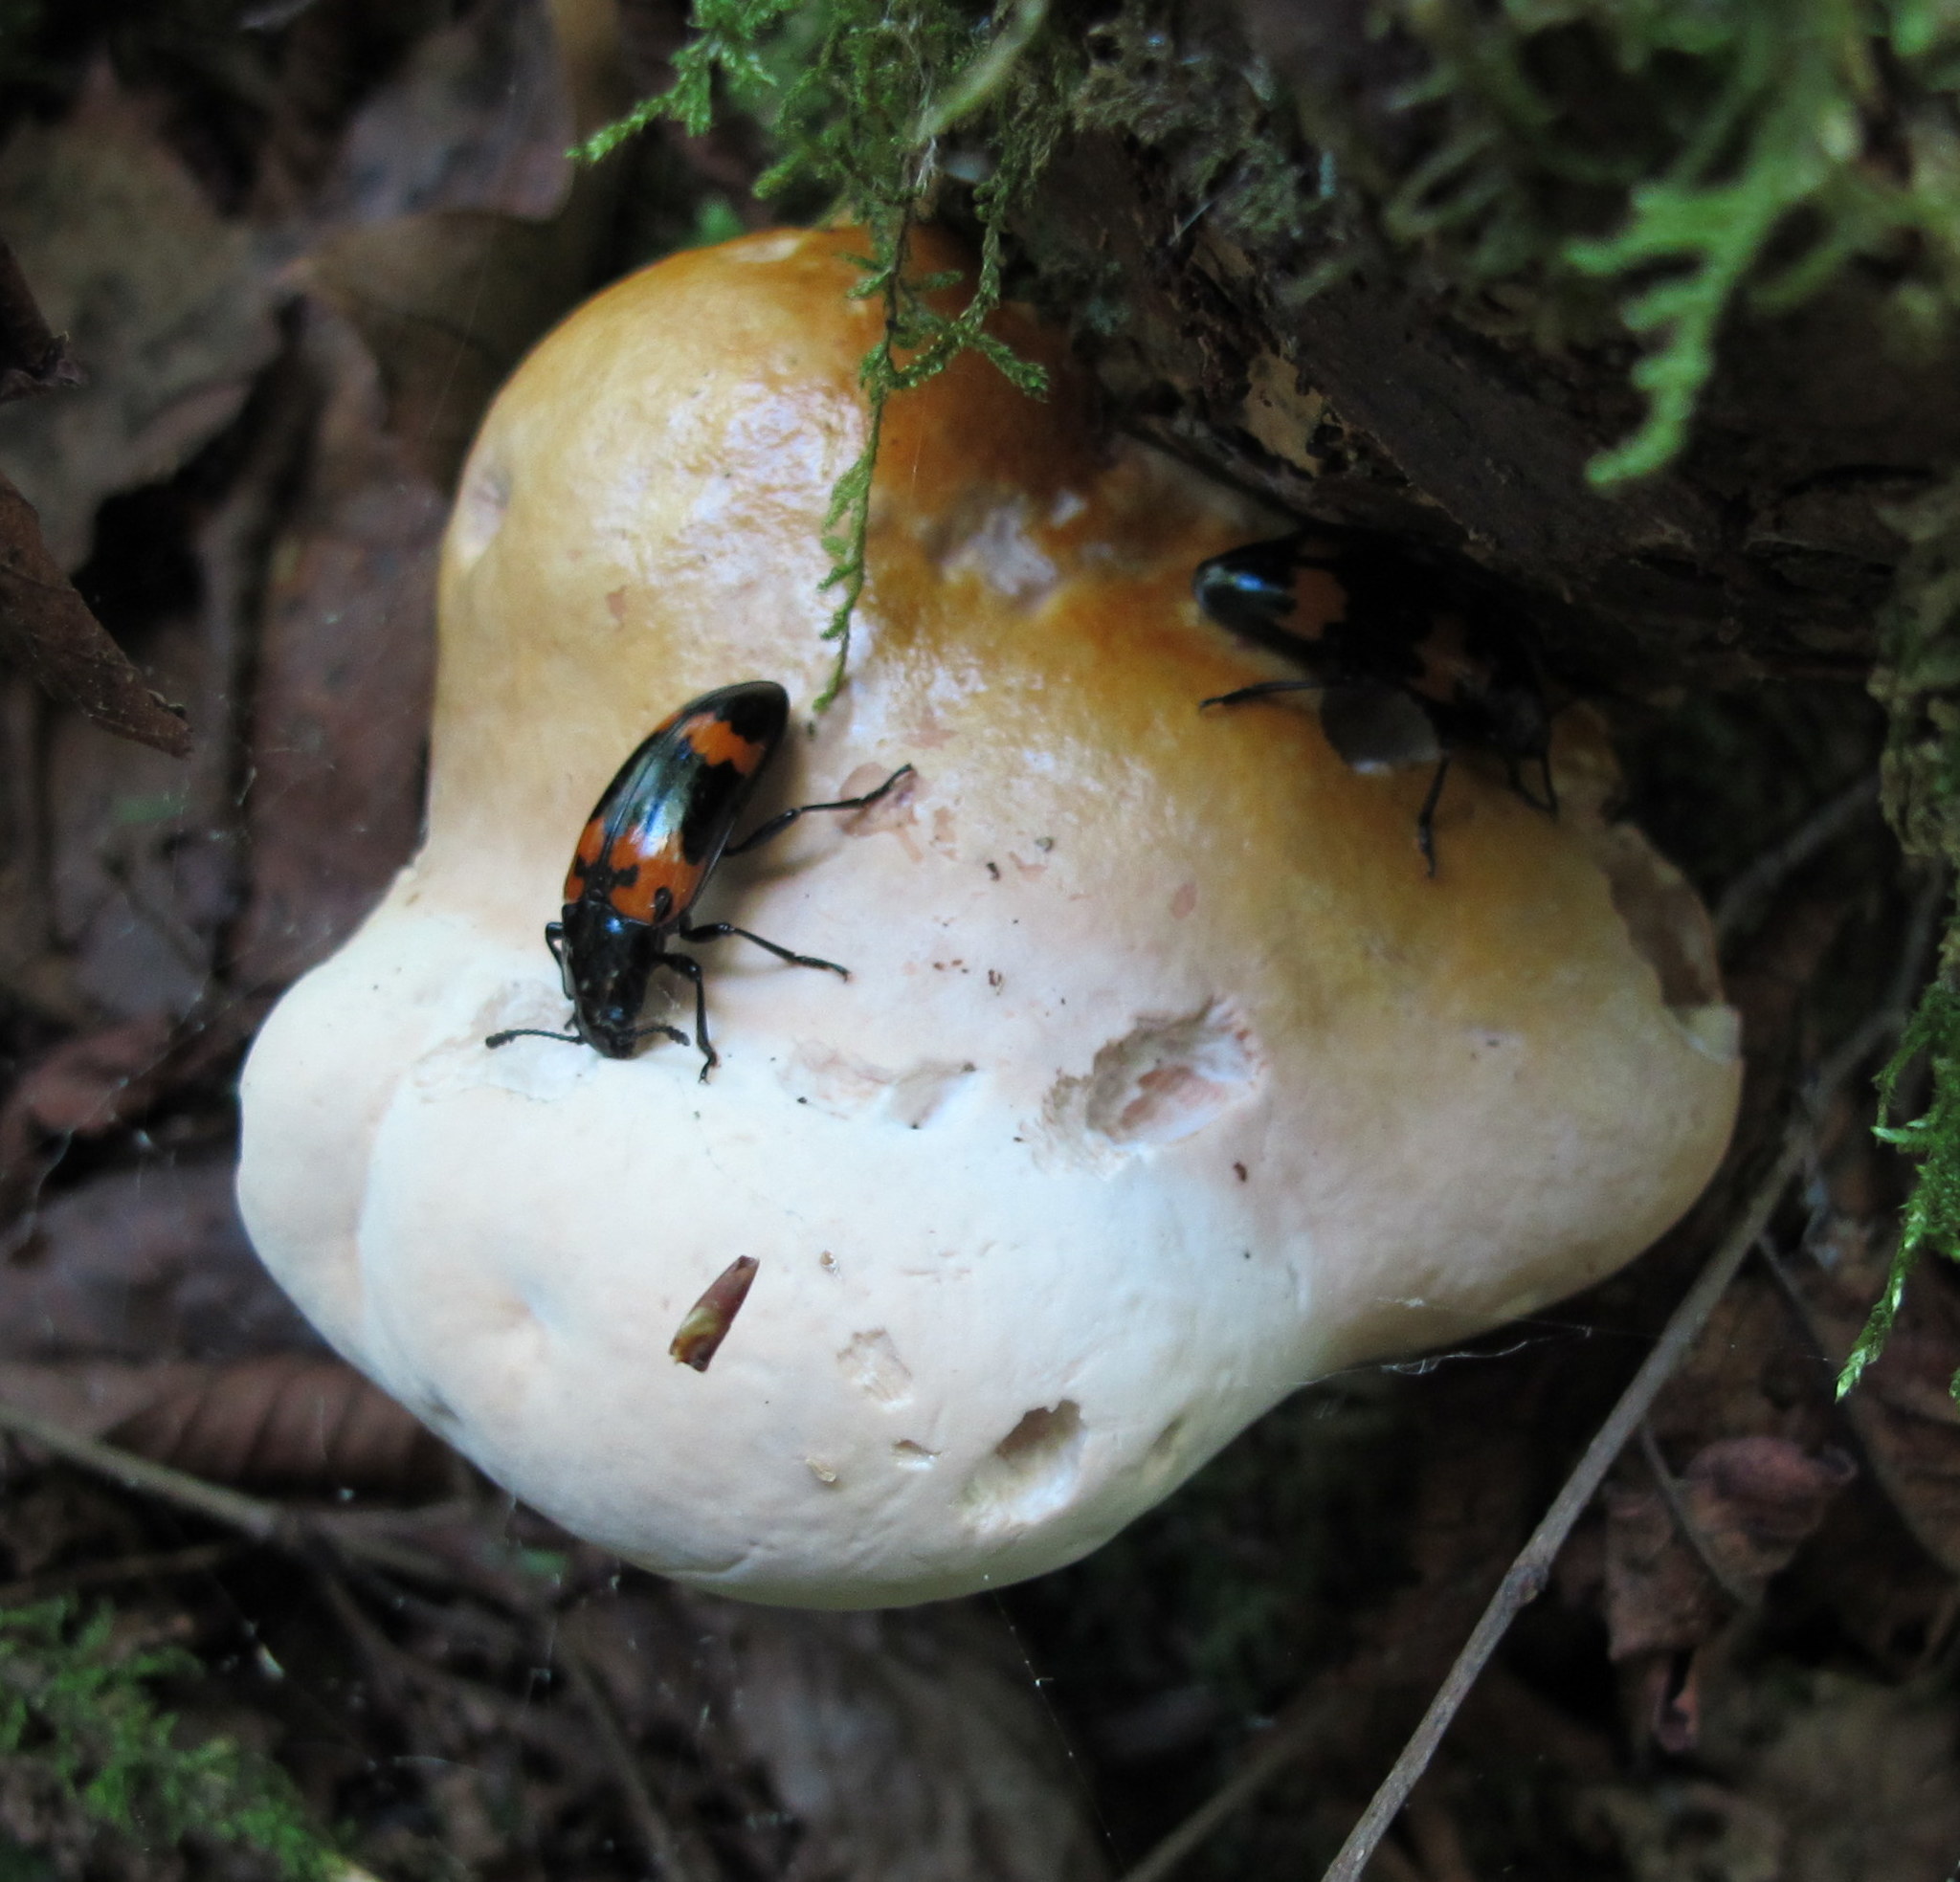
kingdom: Fungi
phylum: Basidiomycota
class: Agaricomycetes
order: Polyporales
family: Polyporaceae
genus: Ganoderma
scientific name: Ganoderma tsugae
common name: Hemlock varnish shelf
